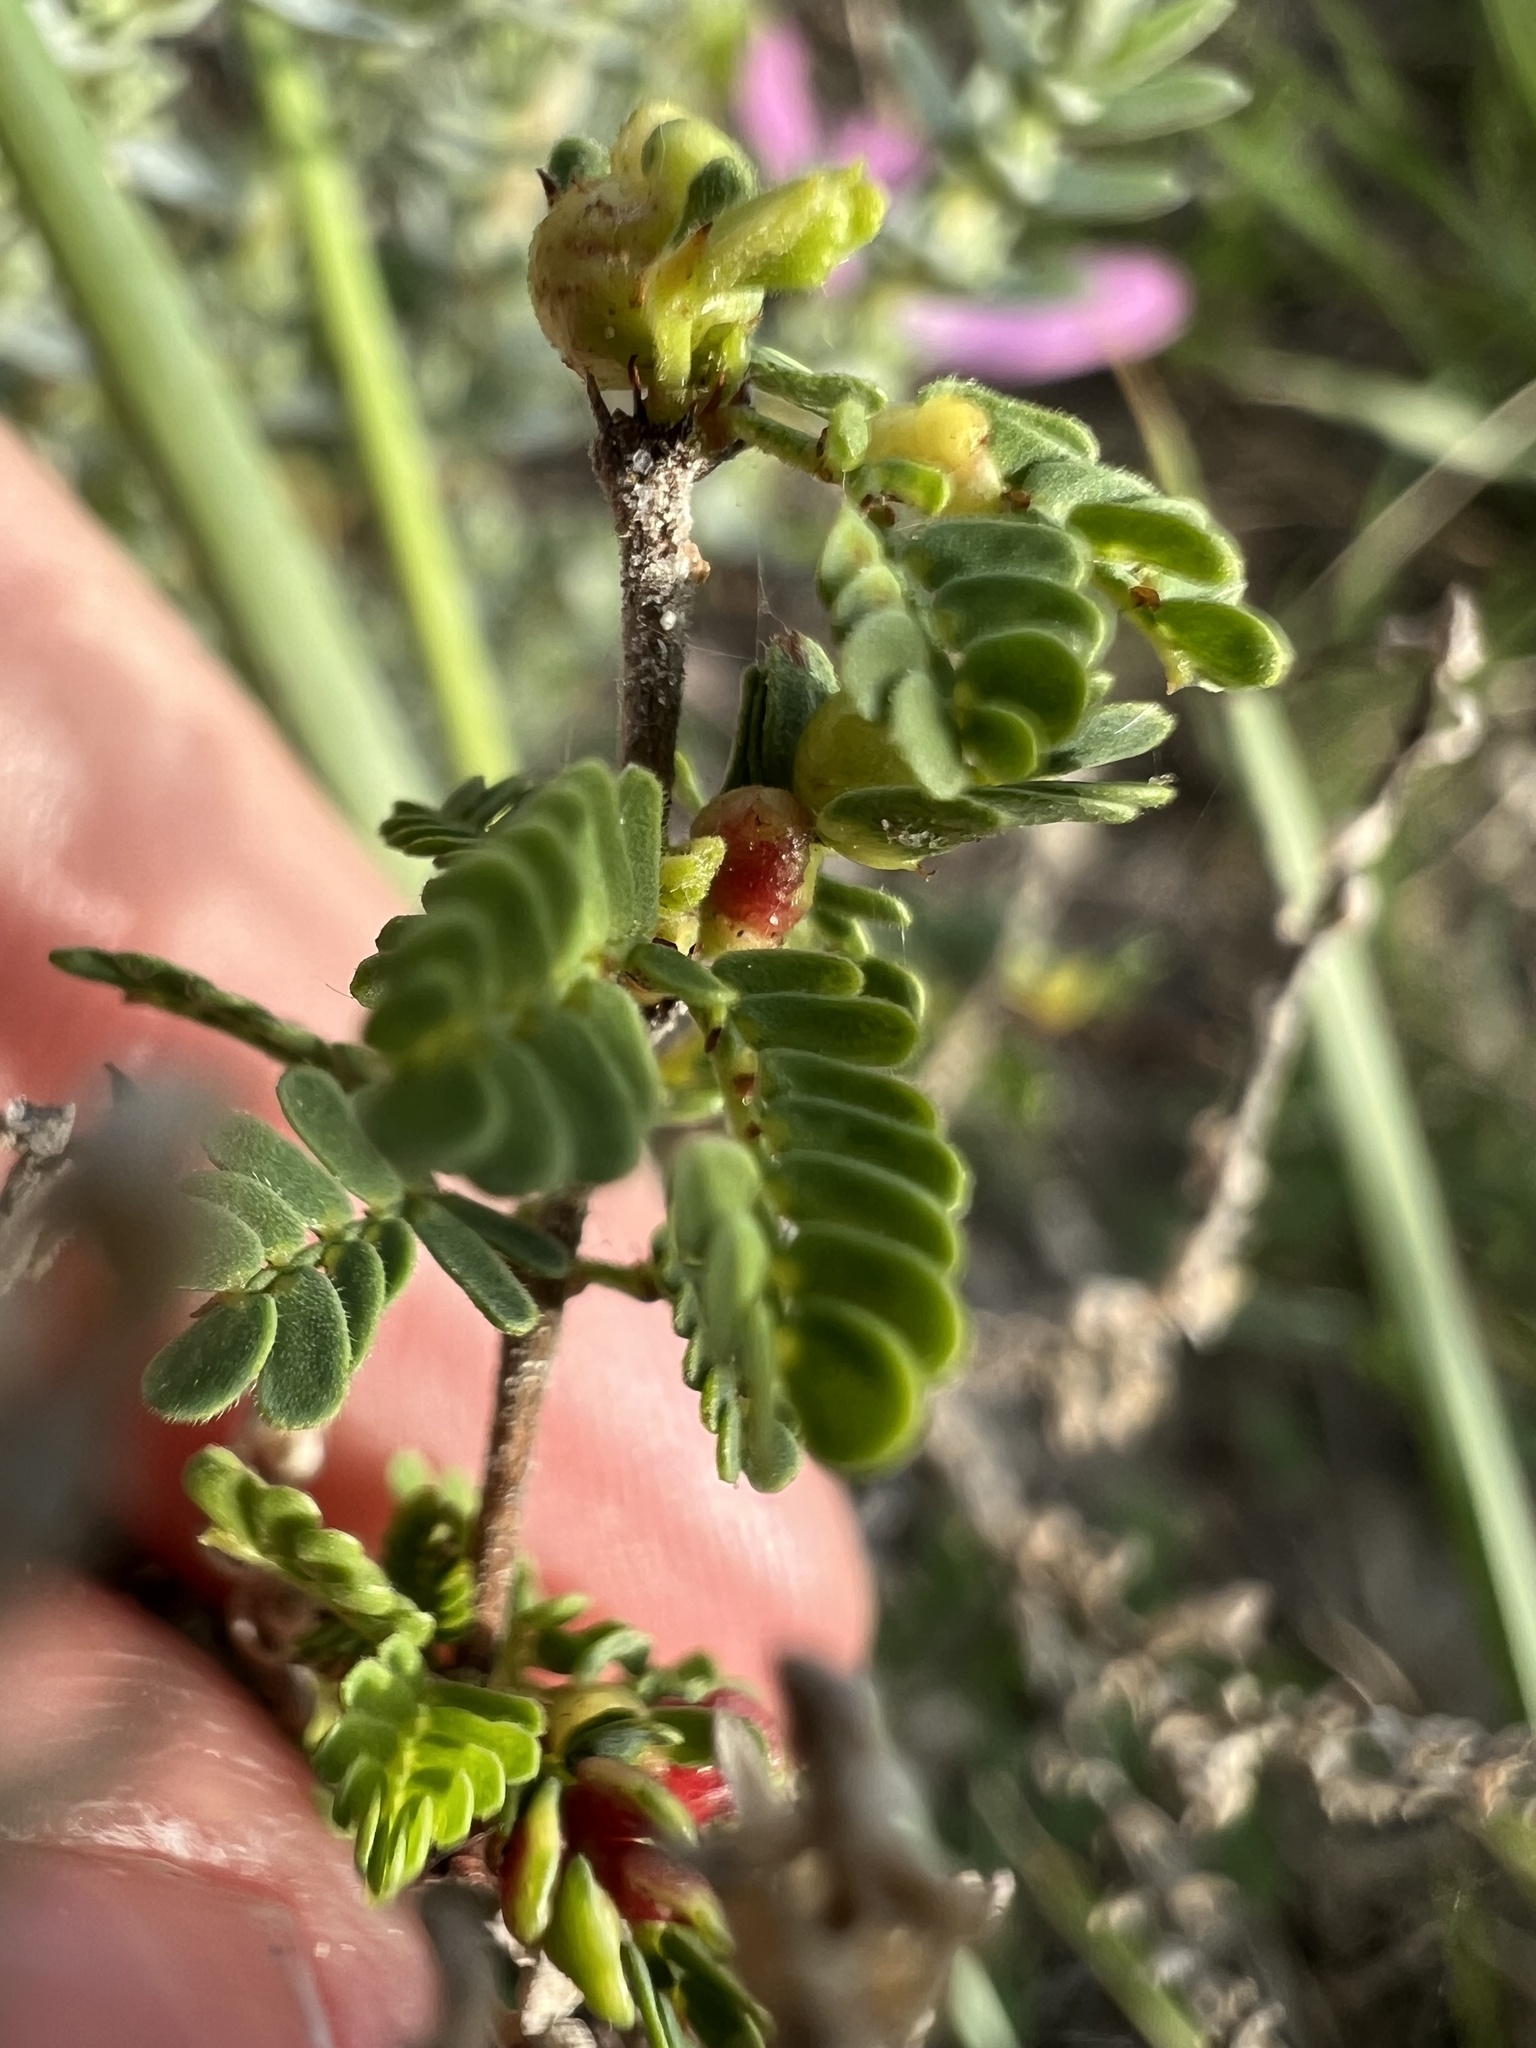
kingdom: Plantae
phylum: Tracheophyta
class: Magnoliopsida
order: Fabales
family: Fabaceae
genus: Prosopis
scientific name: Prosopis cinerascens
